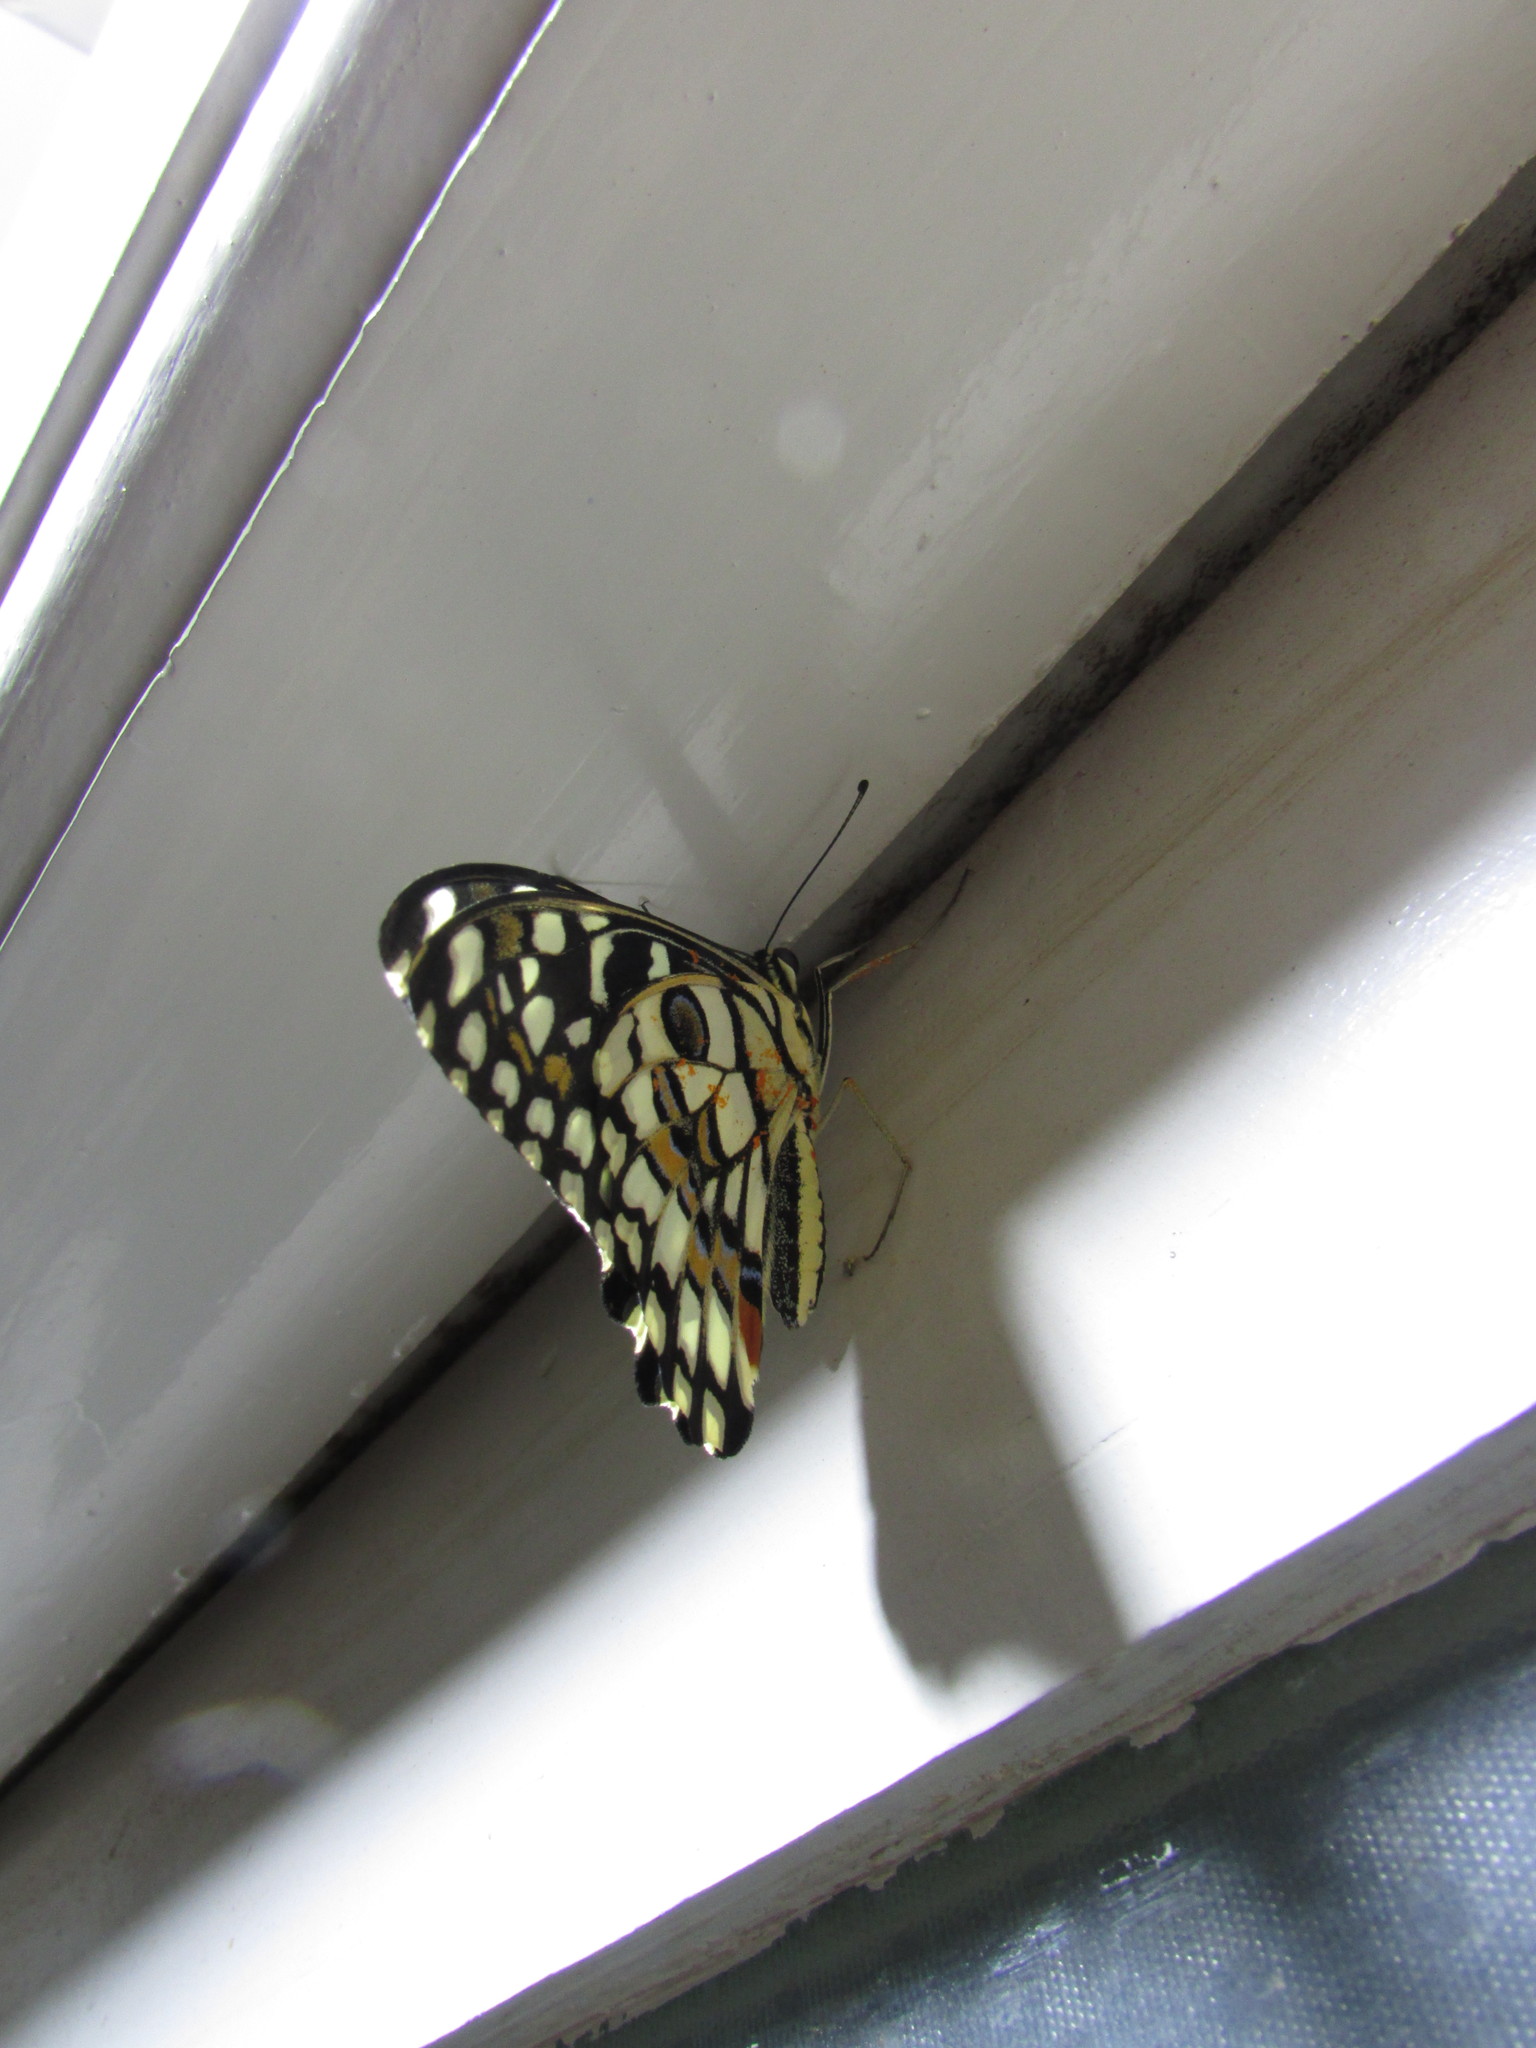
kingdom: Animalia
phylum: Arthropoda
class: Insecta
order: Lepidoptera
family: Papilionidae
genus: Papilio
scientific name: Papilio demoleus
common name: Lime butterfly
